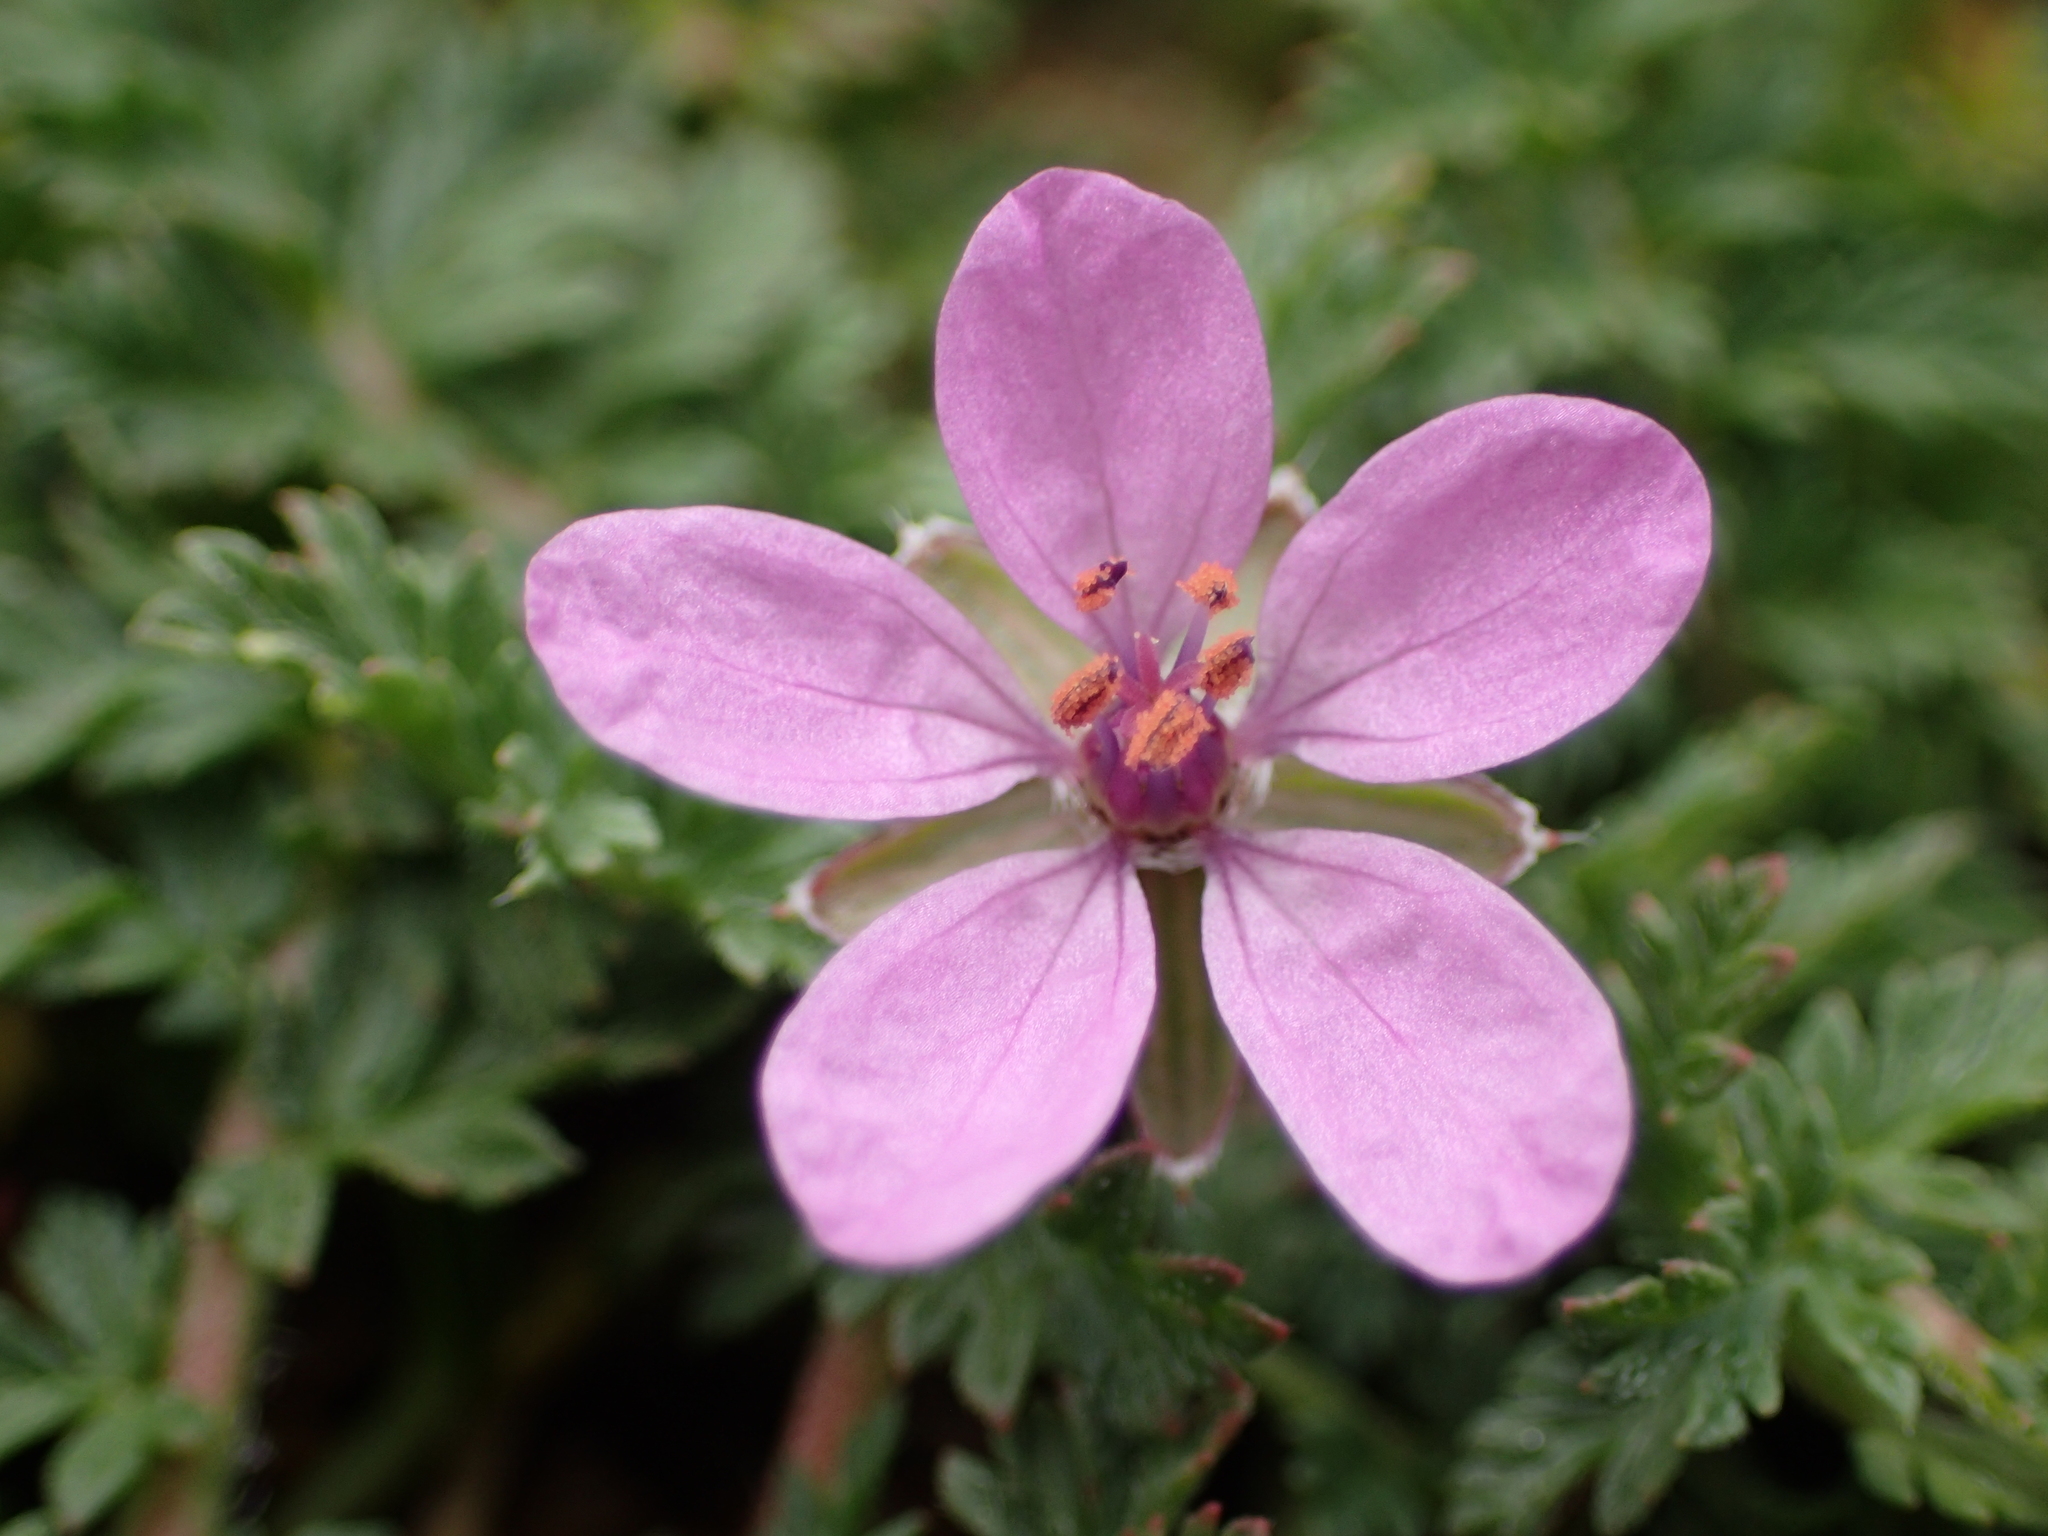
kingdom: Plantae
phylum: Tracheophyta
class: Magnoliopsida
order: Geraniales
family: Geraniaceae
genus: Erodium
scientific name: Erodium cicutarium
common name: Common stork's-bill
